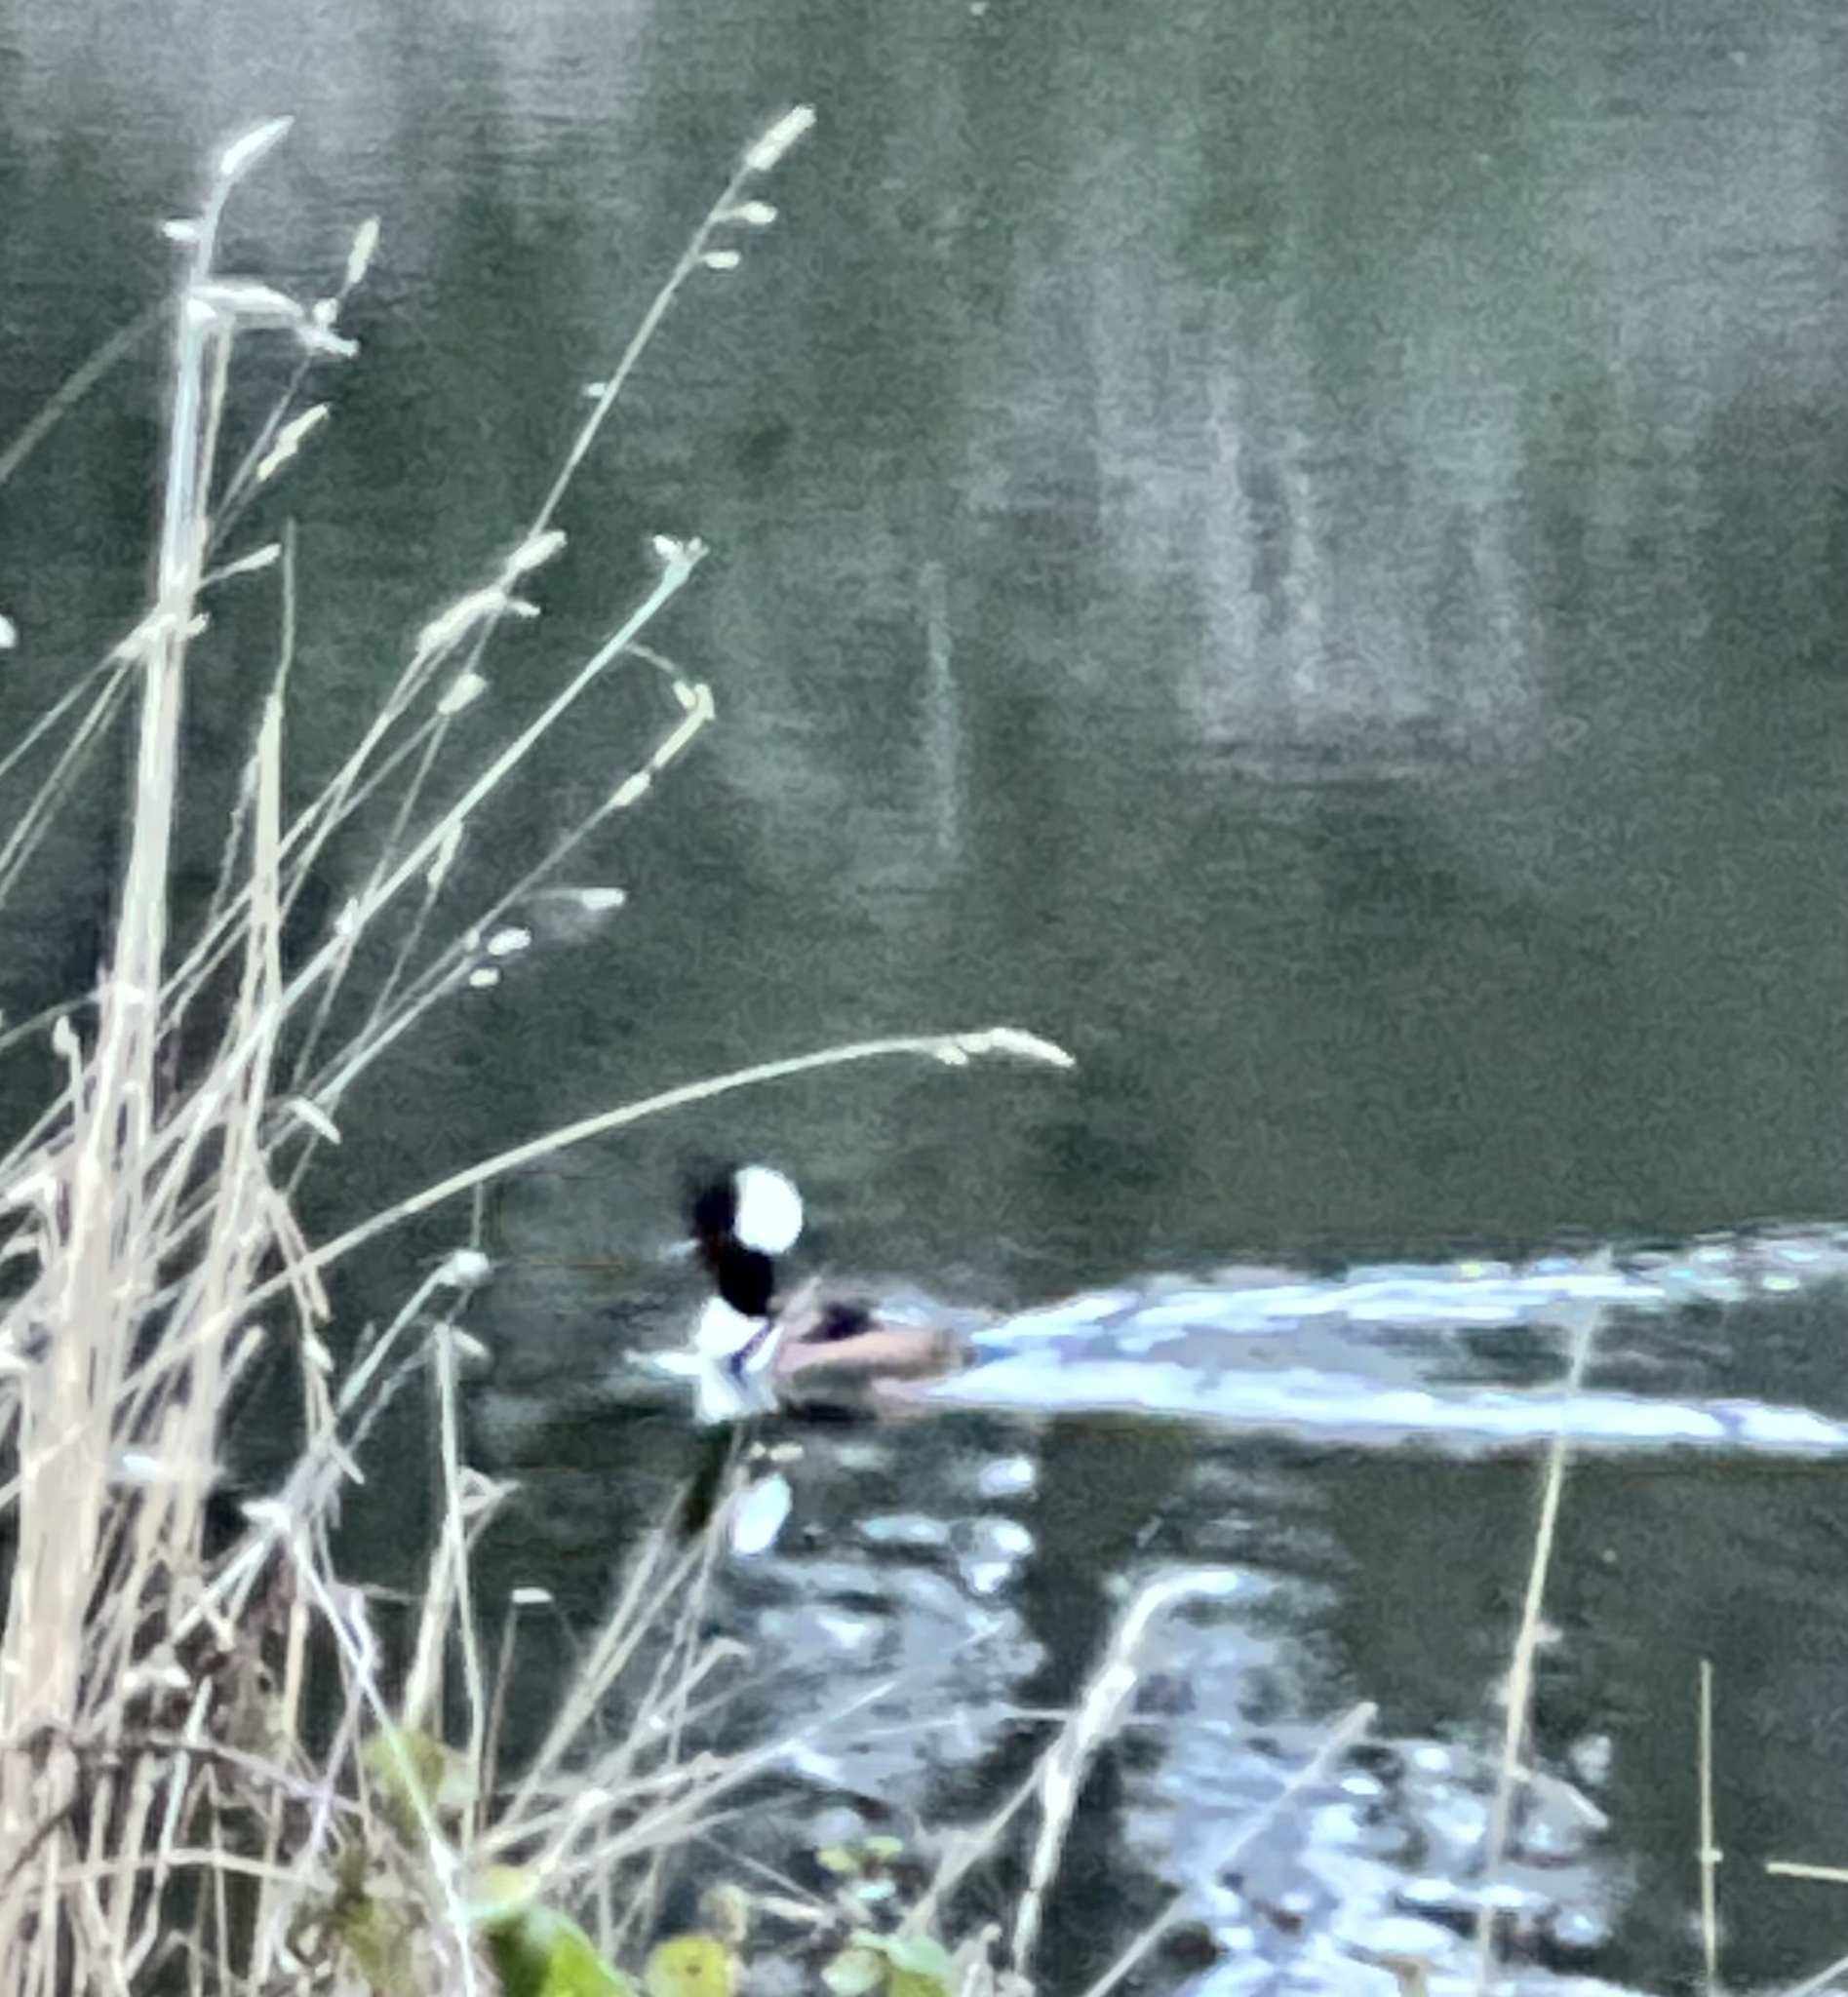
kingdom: Animalia
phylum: Chordata
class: Aves
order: Anseriformes
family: Anatidae
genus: Lophodytes
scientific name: Lophodytes cucullatus
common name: Hooded merganser
